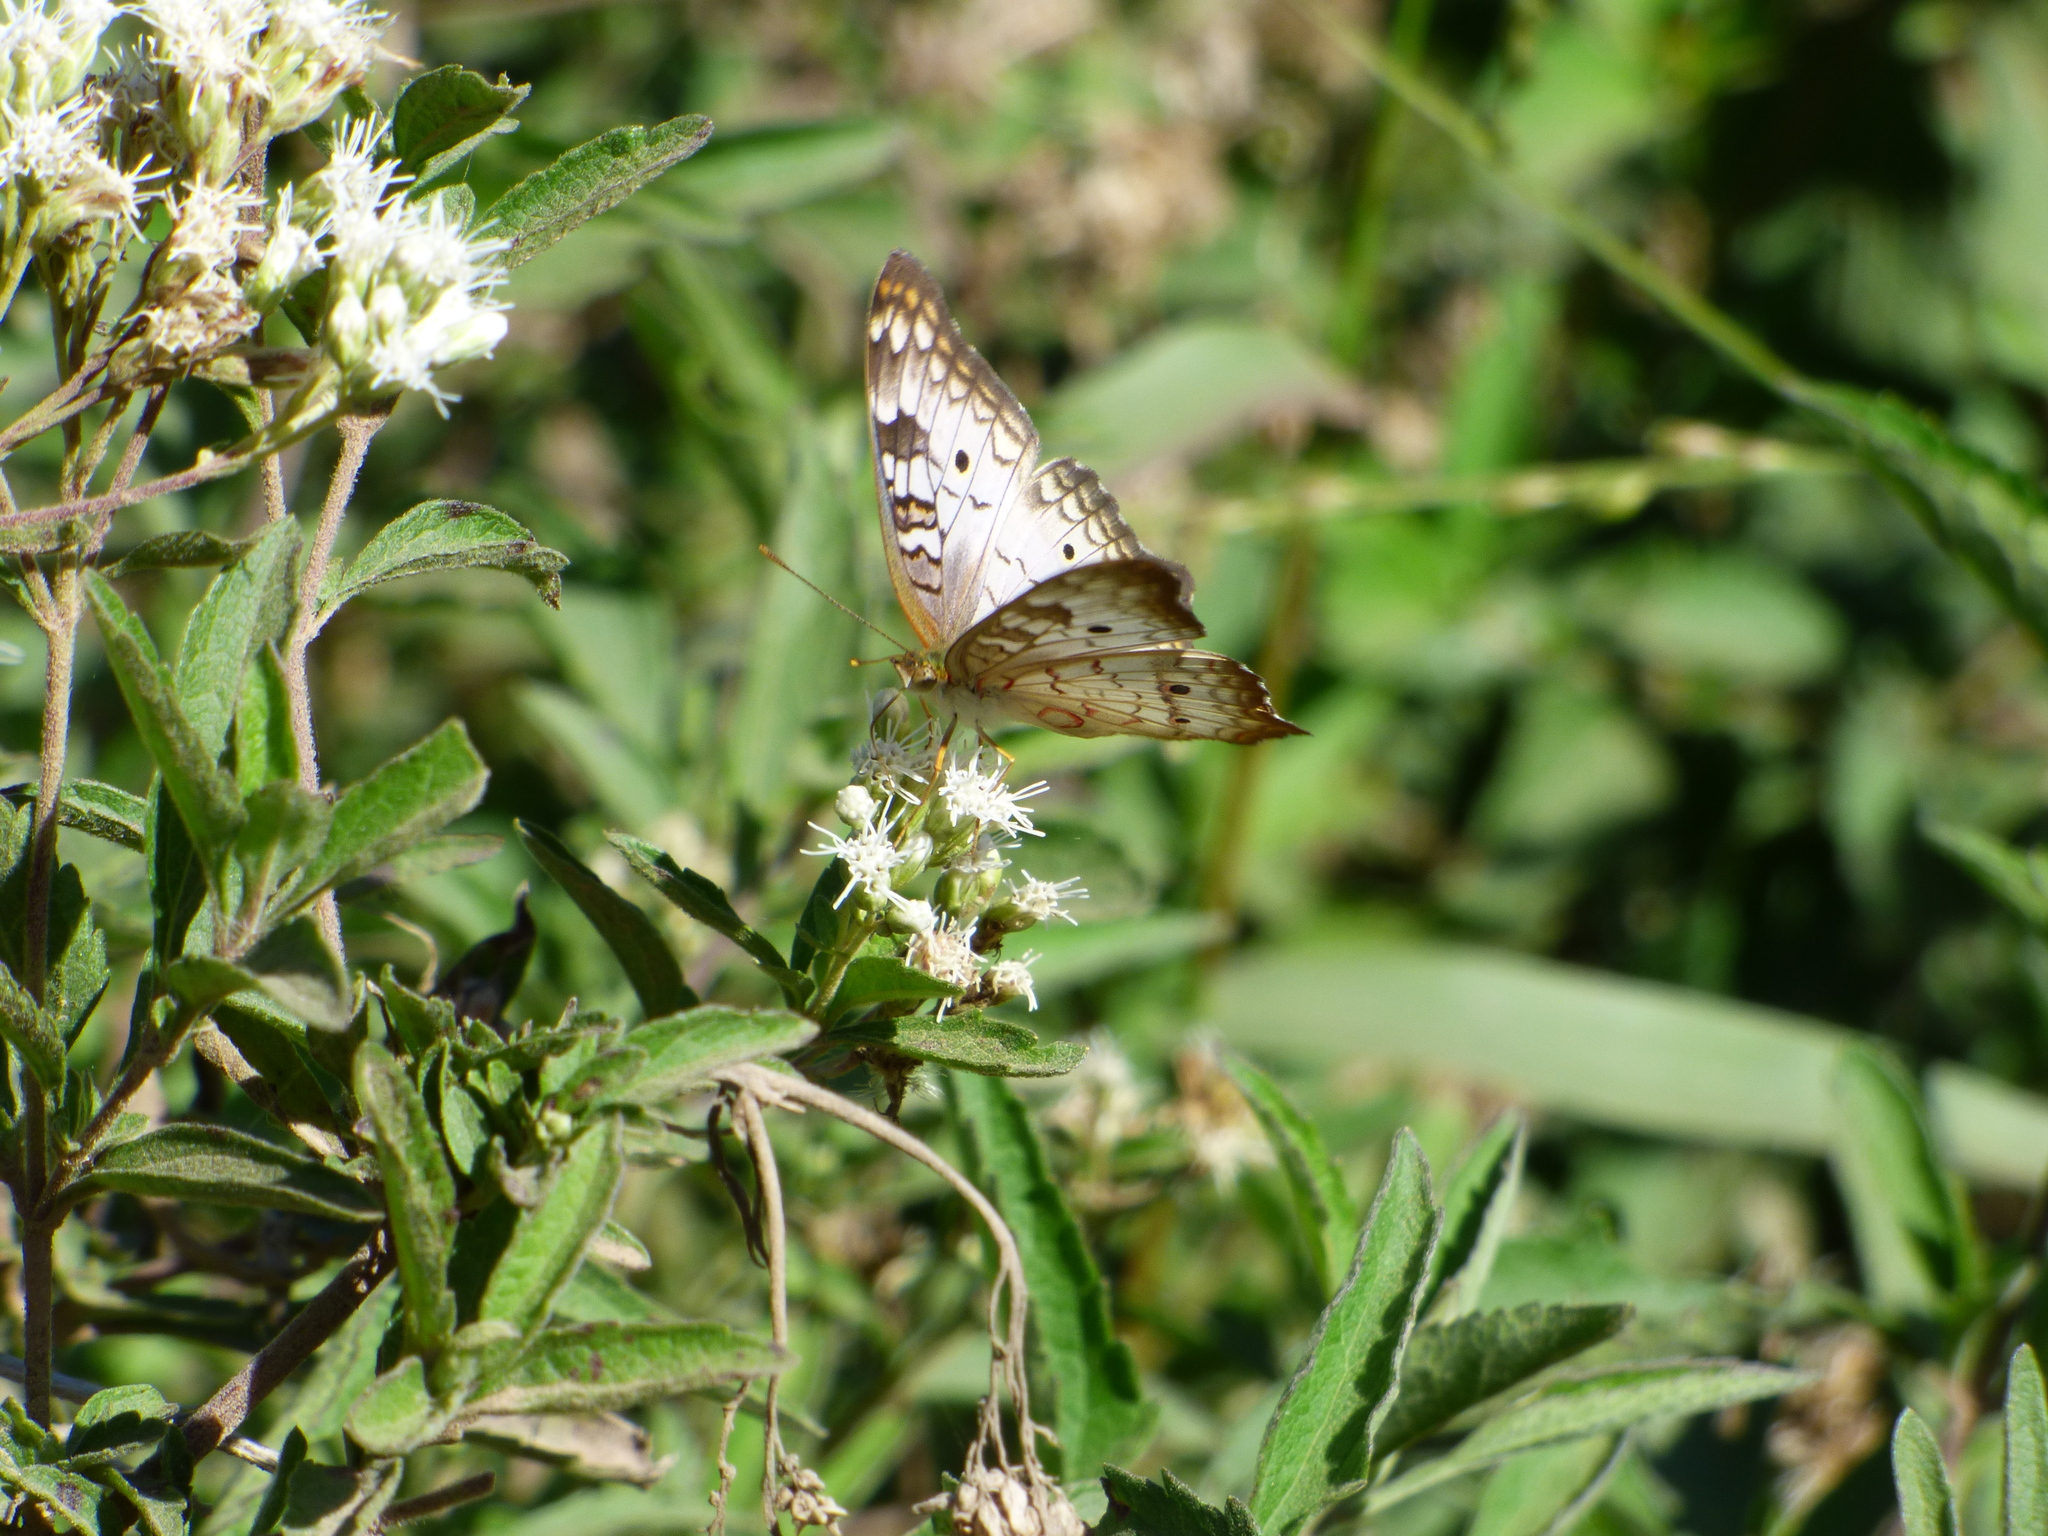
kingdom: Animalia
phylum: Arthropoda
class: Insecta
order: Lepidoptera
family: Nymphalidae
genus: Anartia
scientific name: Anartia jatrophae
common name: White peacock
